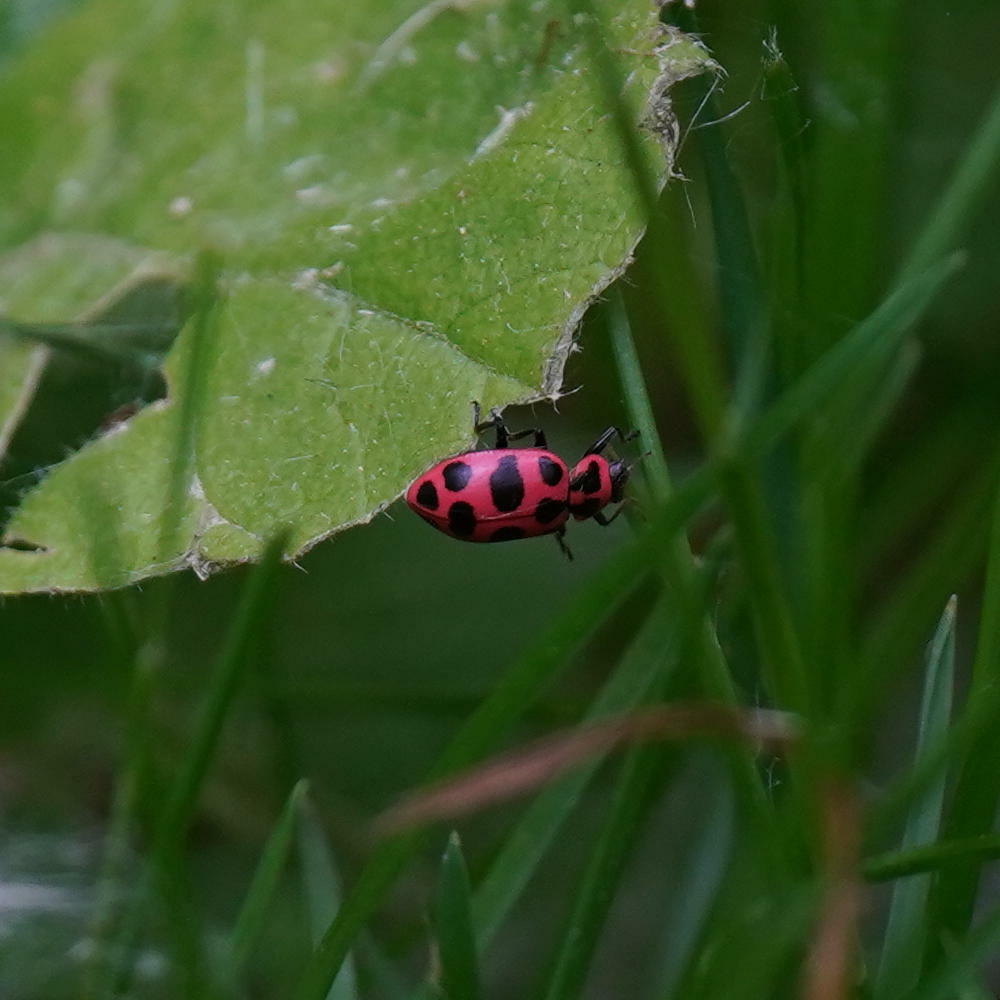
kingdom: Animalia
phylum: Arthropoda
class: Insecta
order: Coleoptera
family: Coccinellidae
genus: Coleomegilla
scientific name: Coleomegilla maculata
